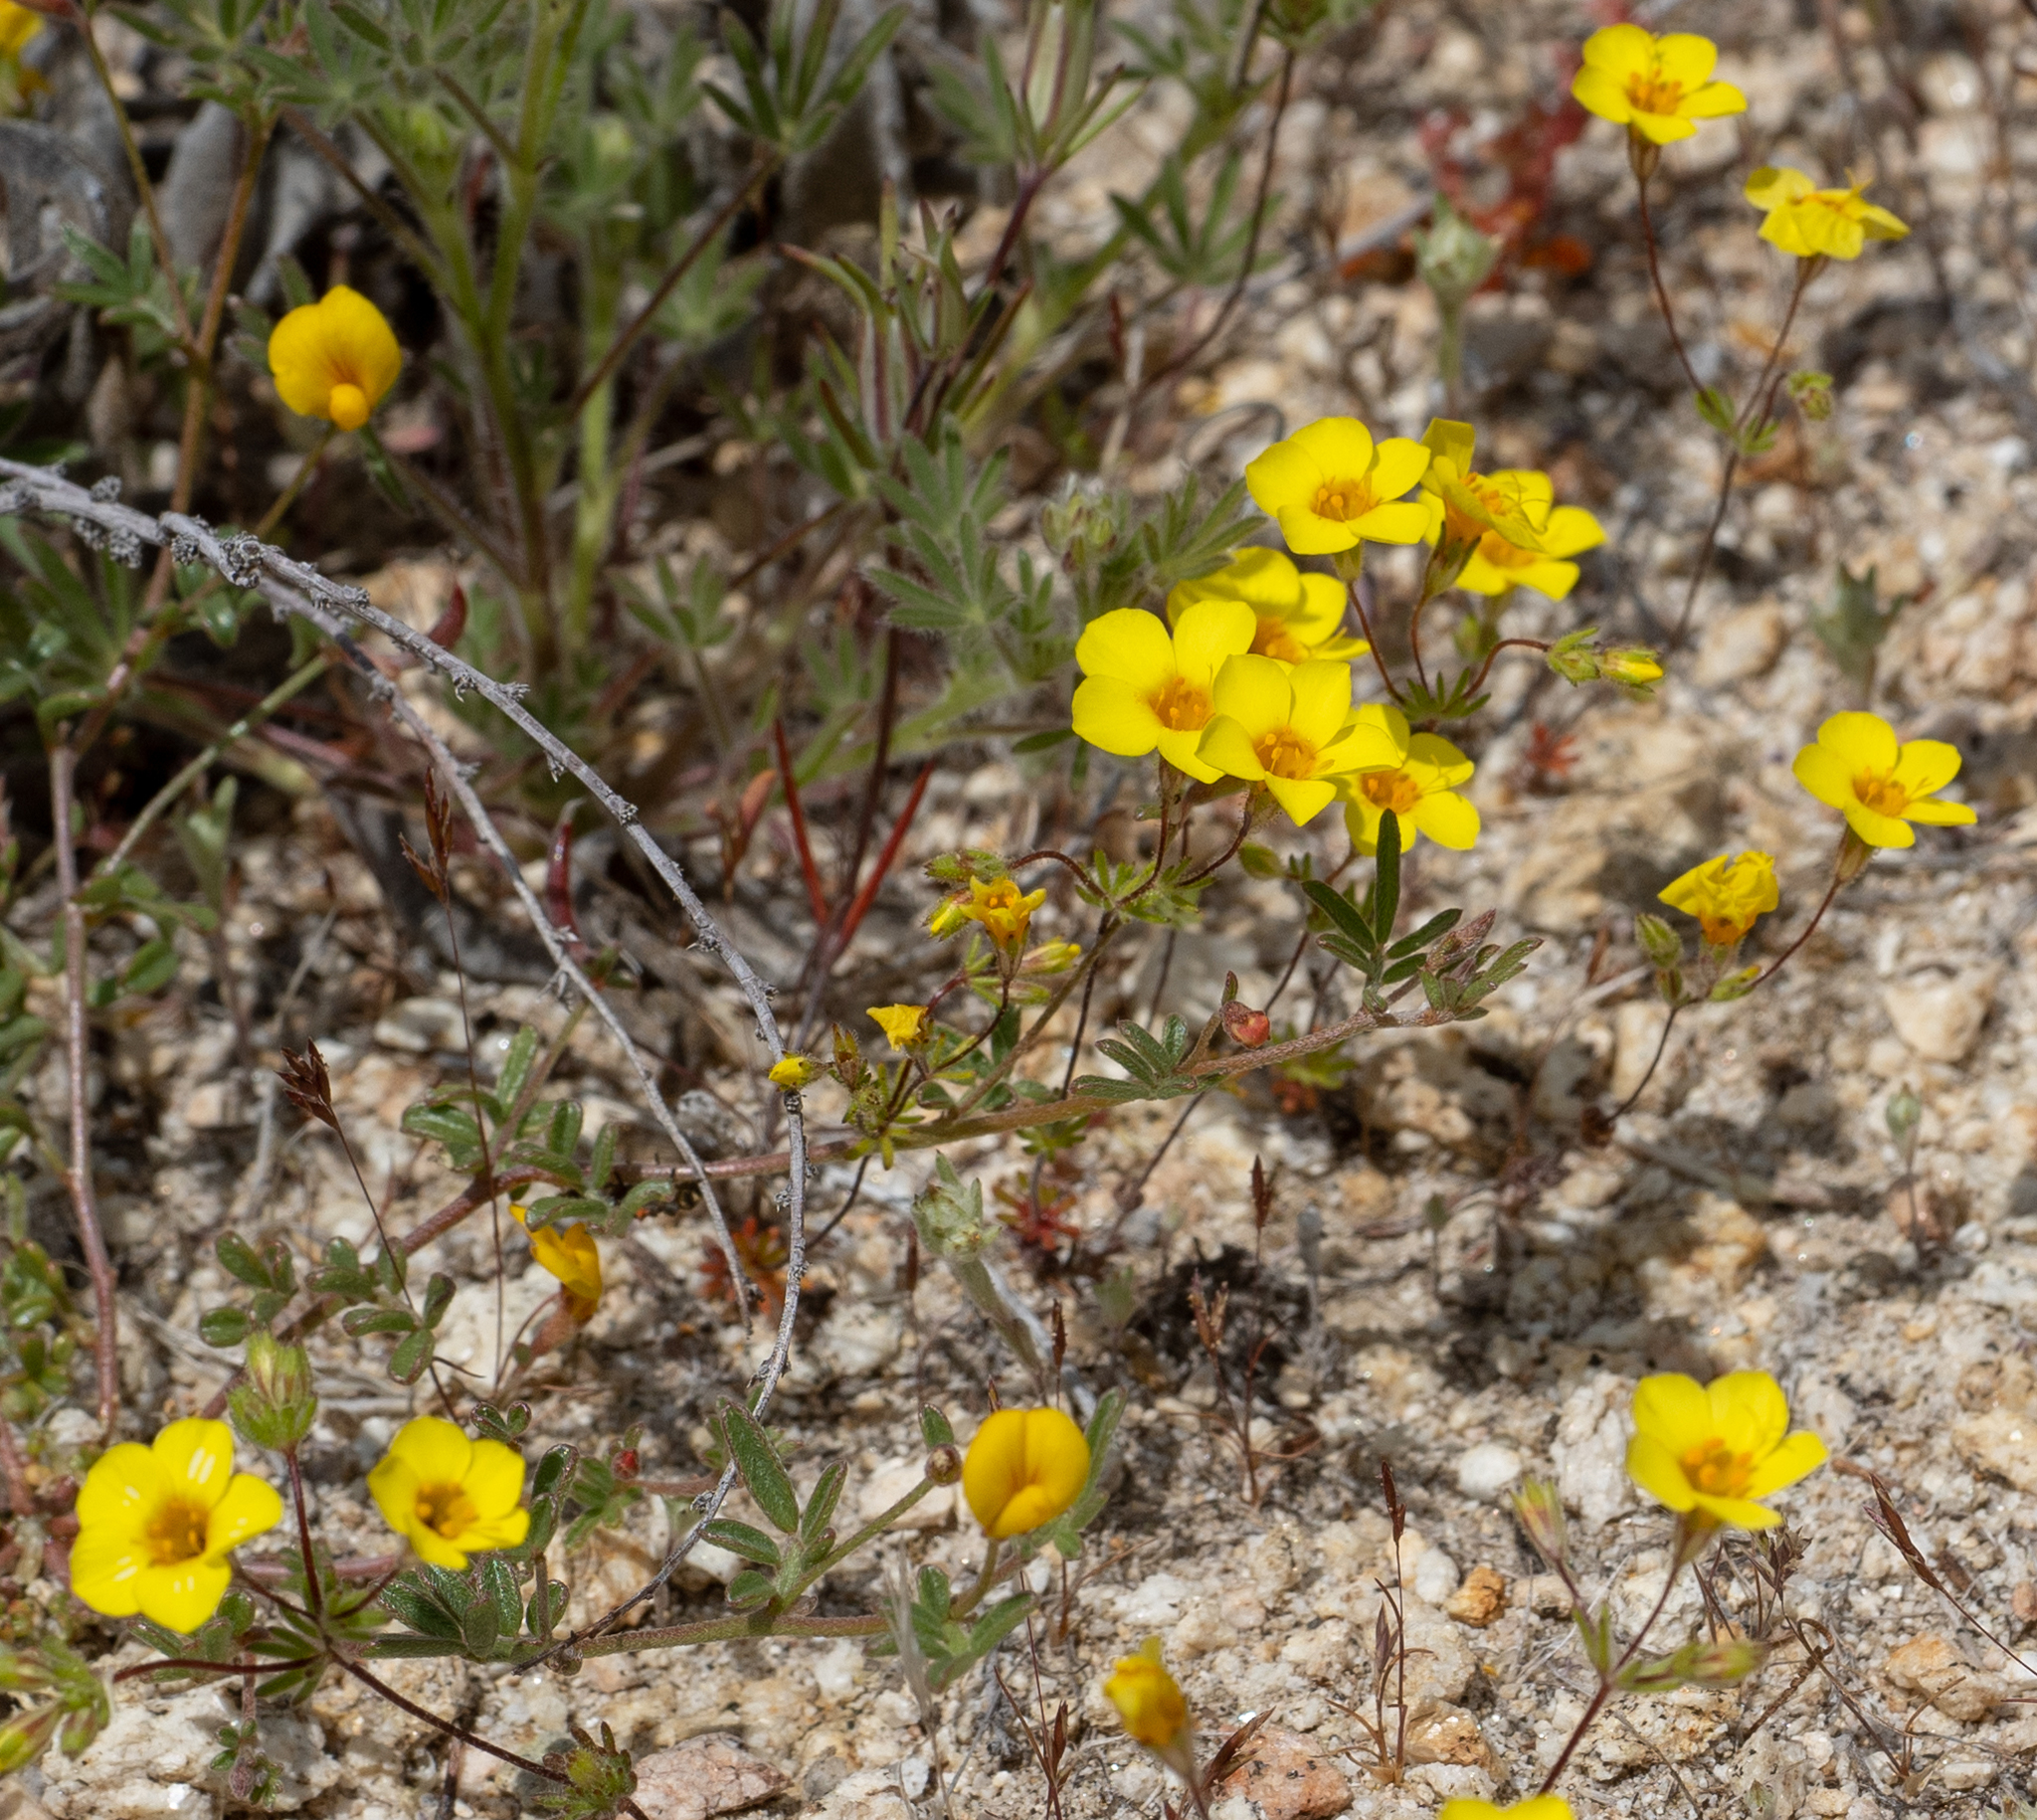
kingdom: Plantae
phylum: Tracheophyta
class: Magnoliopsida
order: Ericales
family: Polemoniaceae
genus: Leptosiphon
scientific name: Leptosiphon chrysanthus
